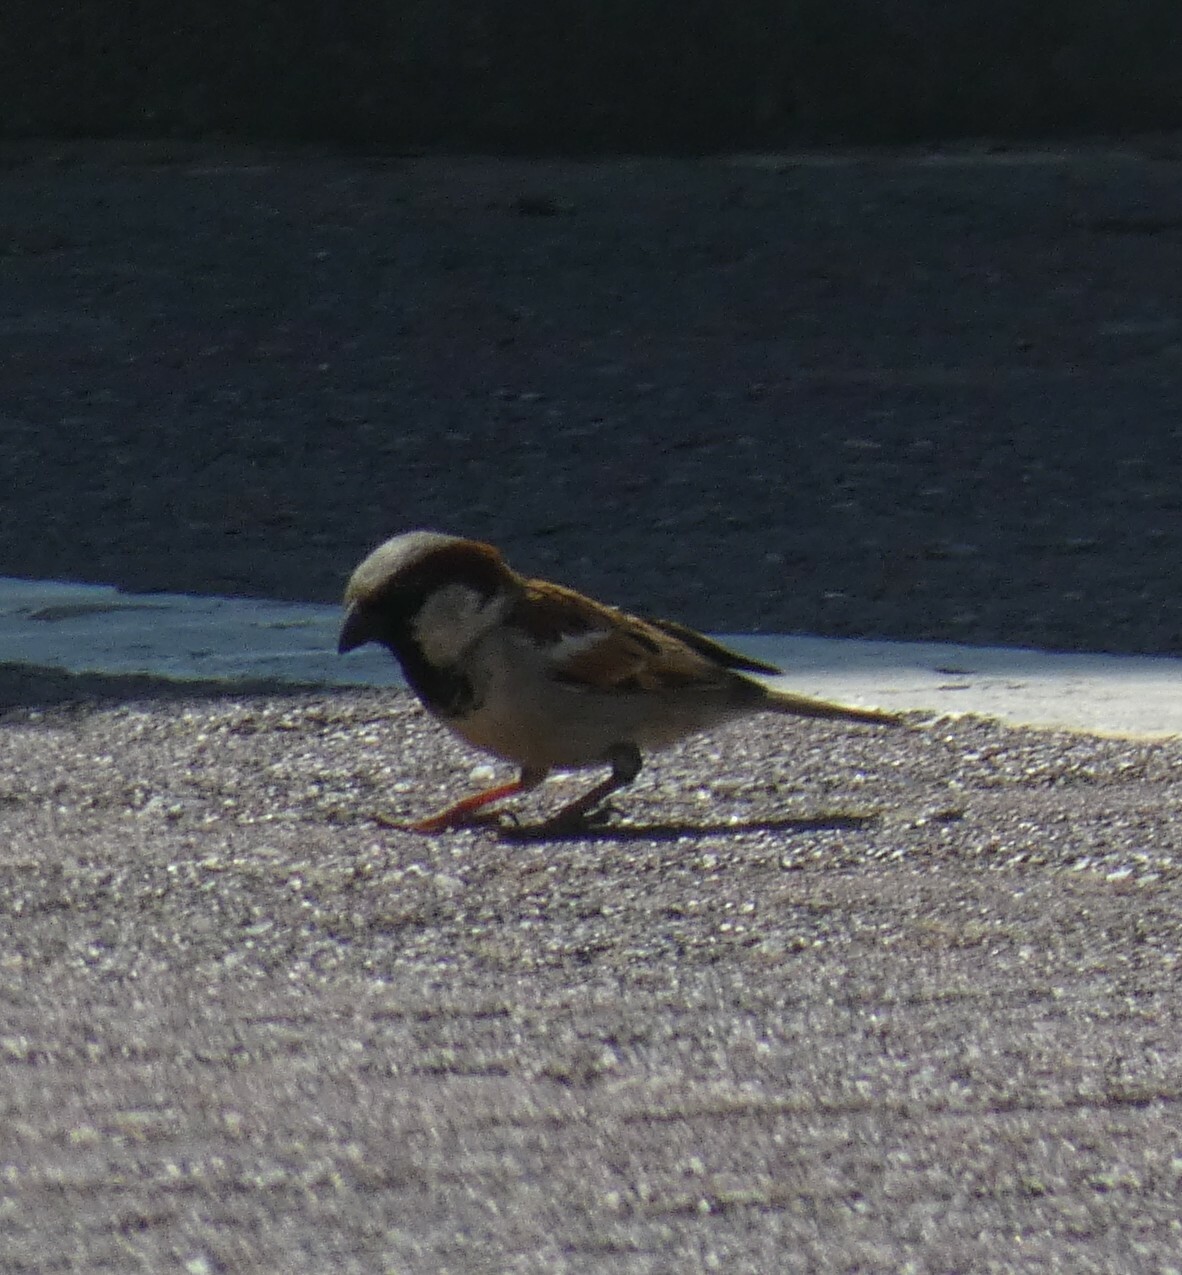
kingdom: Animalia
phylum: Chordata
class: Aves
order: Passeriformes
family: Passeridae
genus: Passer
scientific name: Passer domesticus
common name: House sparrow
